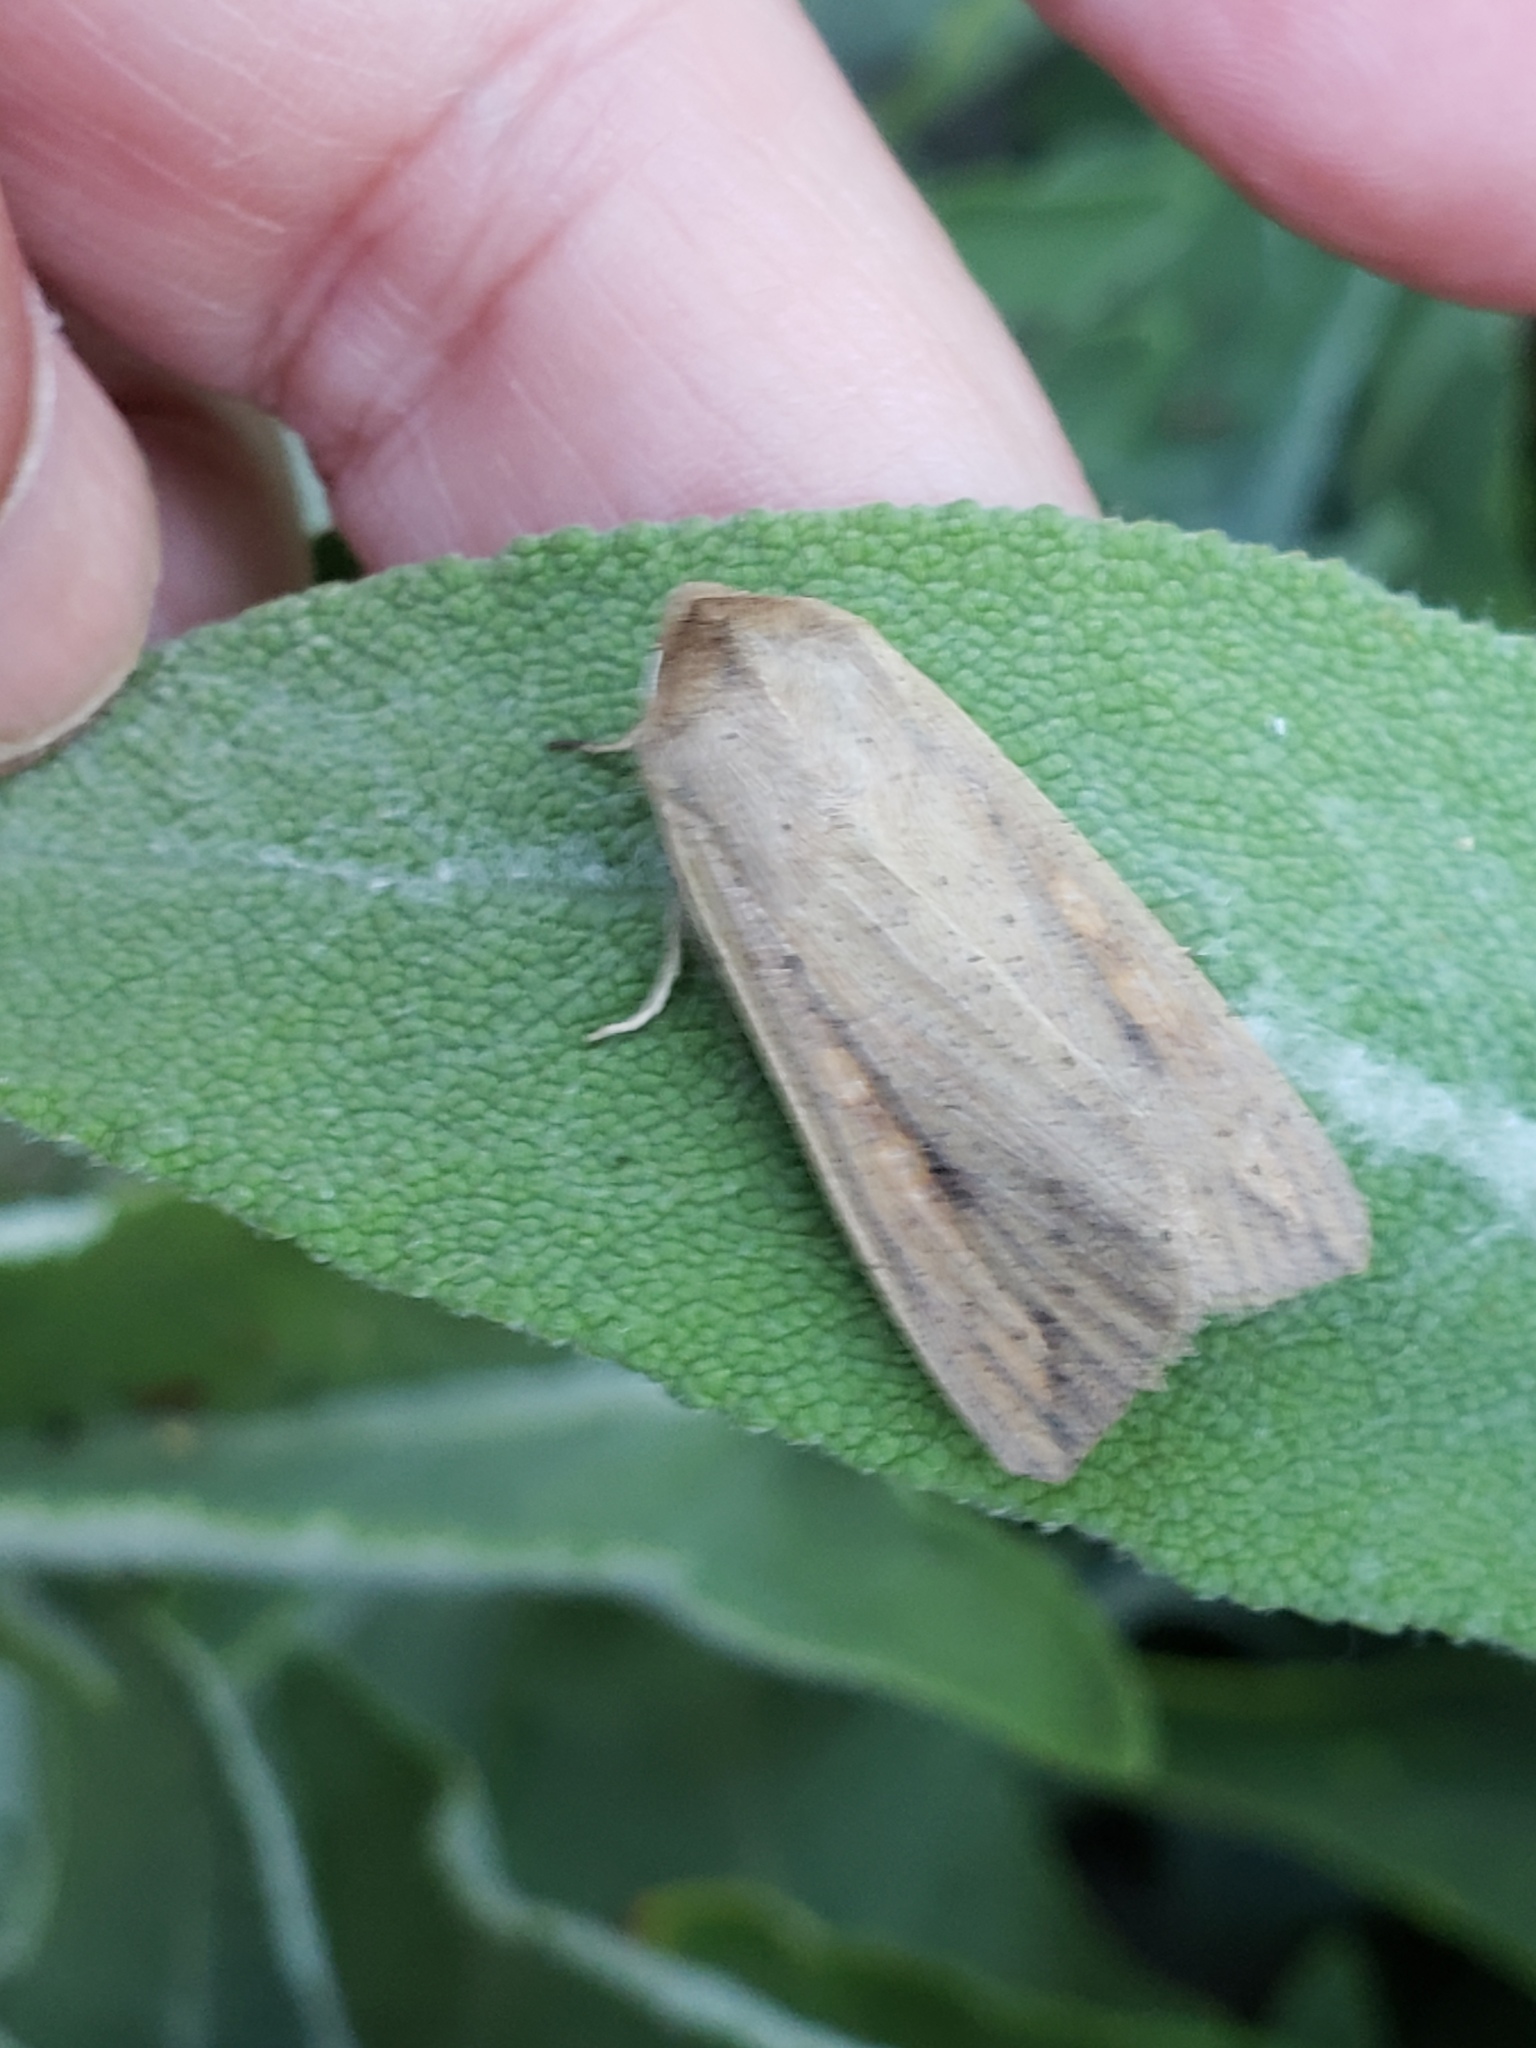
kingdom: Animalia
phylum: Arthropoda
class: Insecta
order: Lepidoptera
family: Noctuidae
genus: Mythimna
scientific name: Mythimna unipuncta
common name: White-speck
